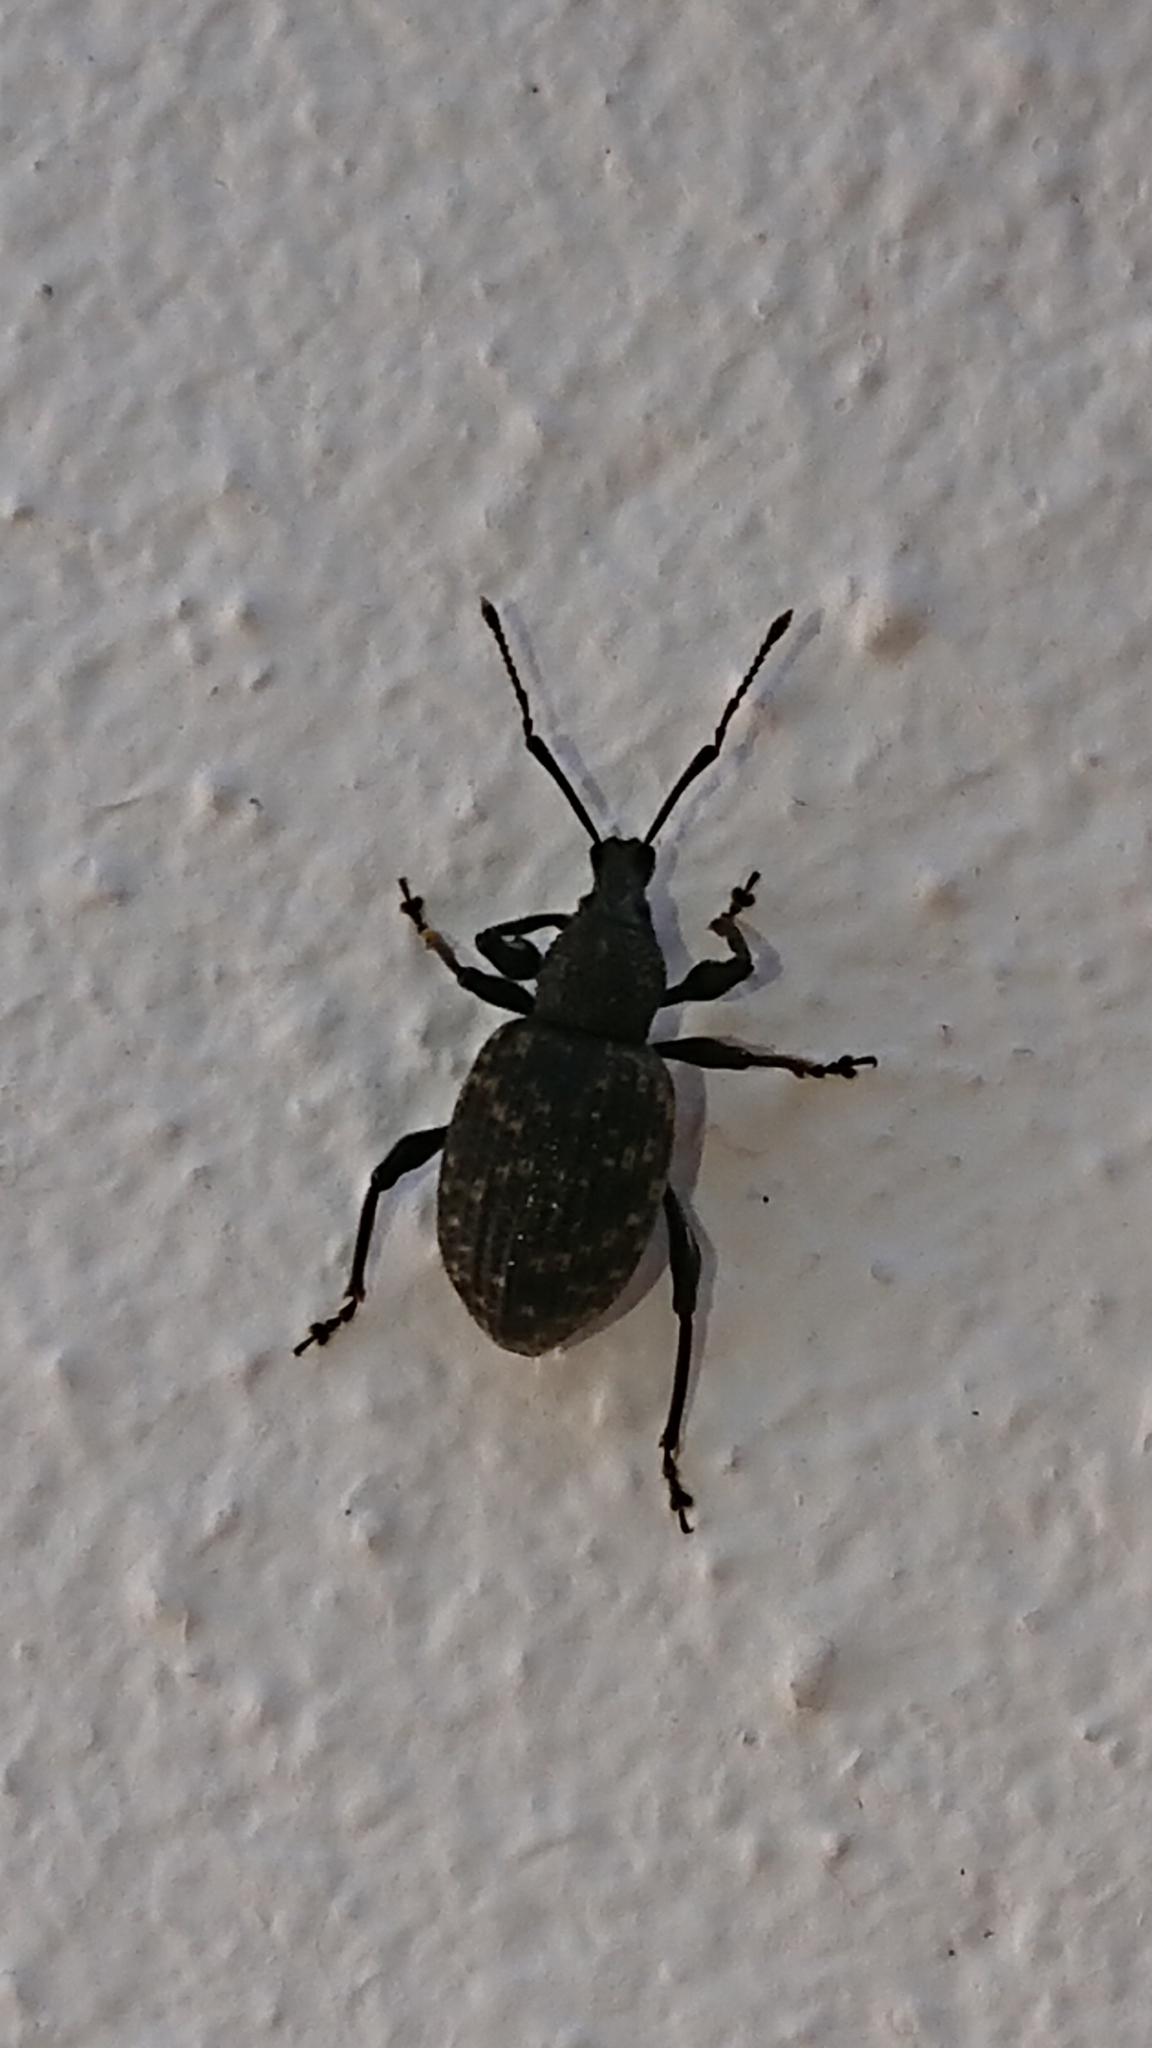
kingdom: Animalia
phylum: Arthropoda
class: Insecta
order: Coleoptera
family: Curculionidae
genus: Otiorhynchus
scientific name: Otiorhynchus sulcatus
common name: Black vine weevil
